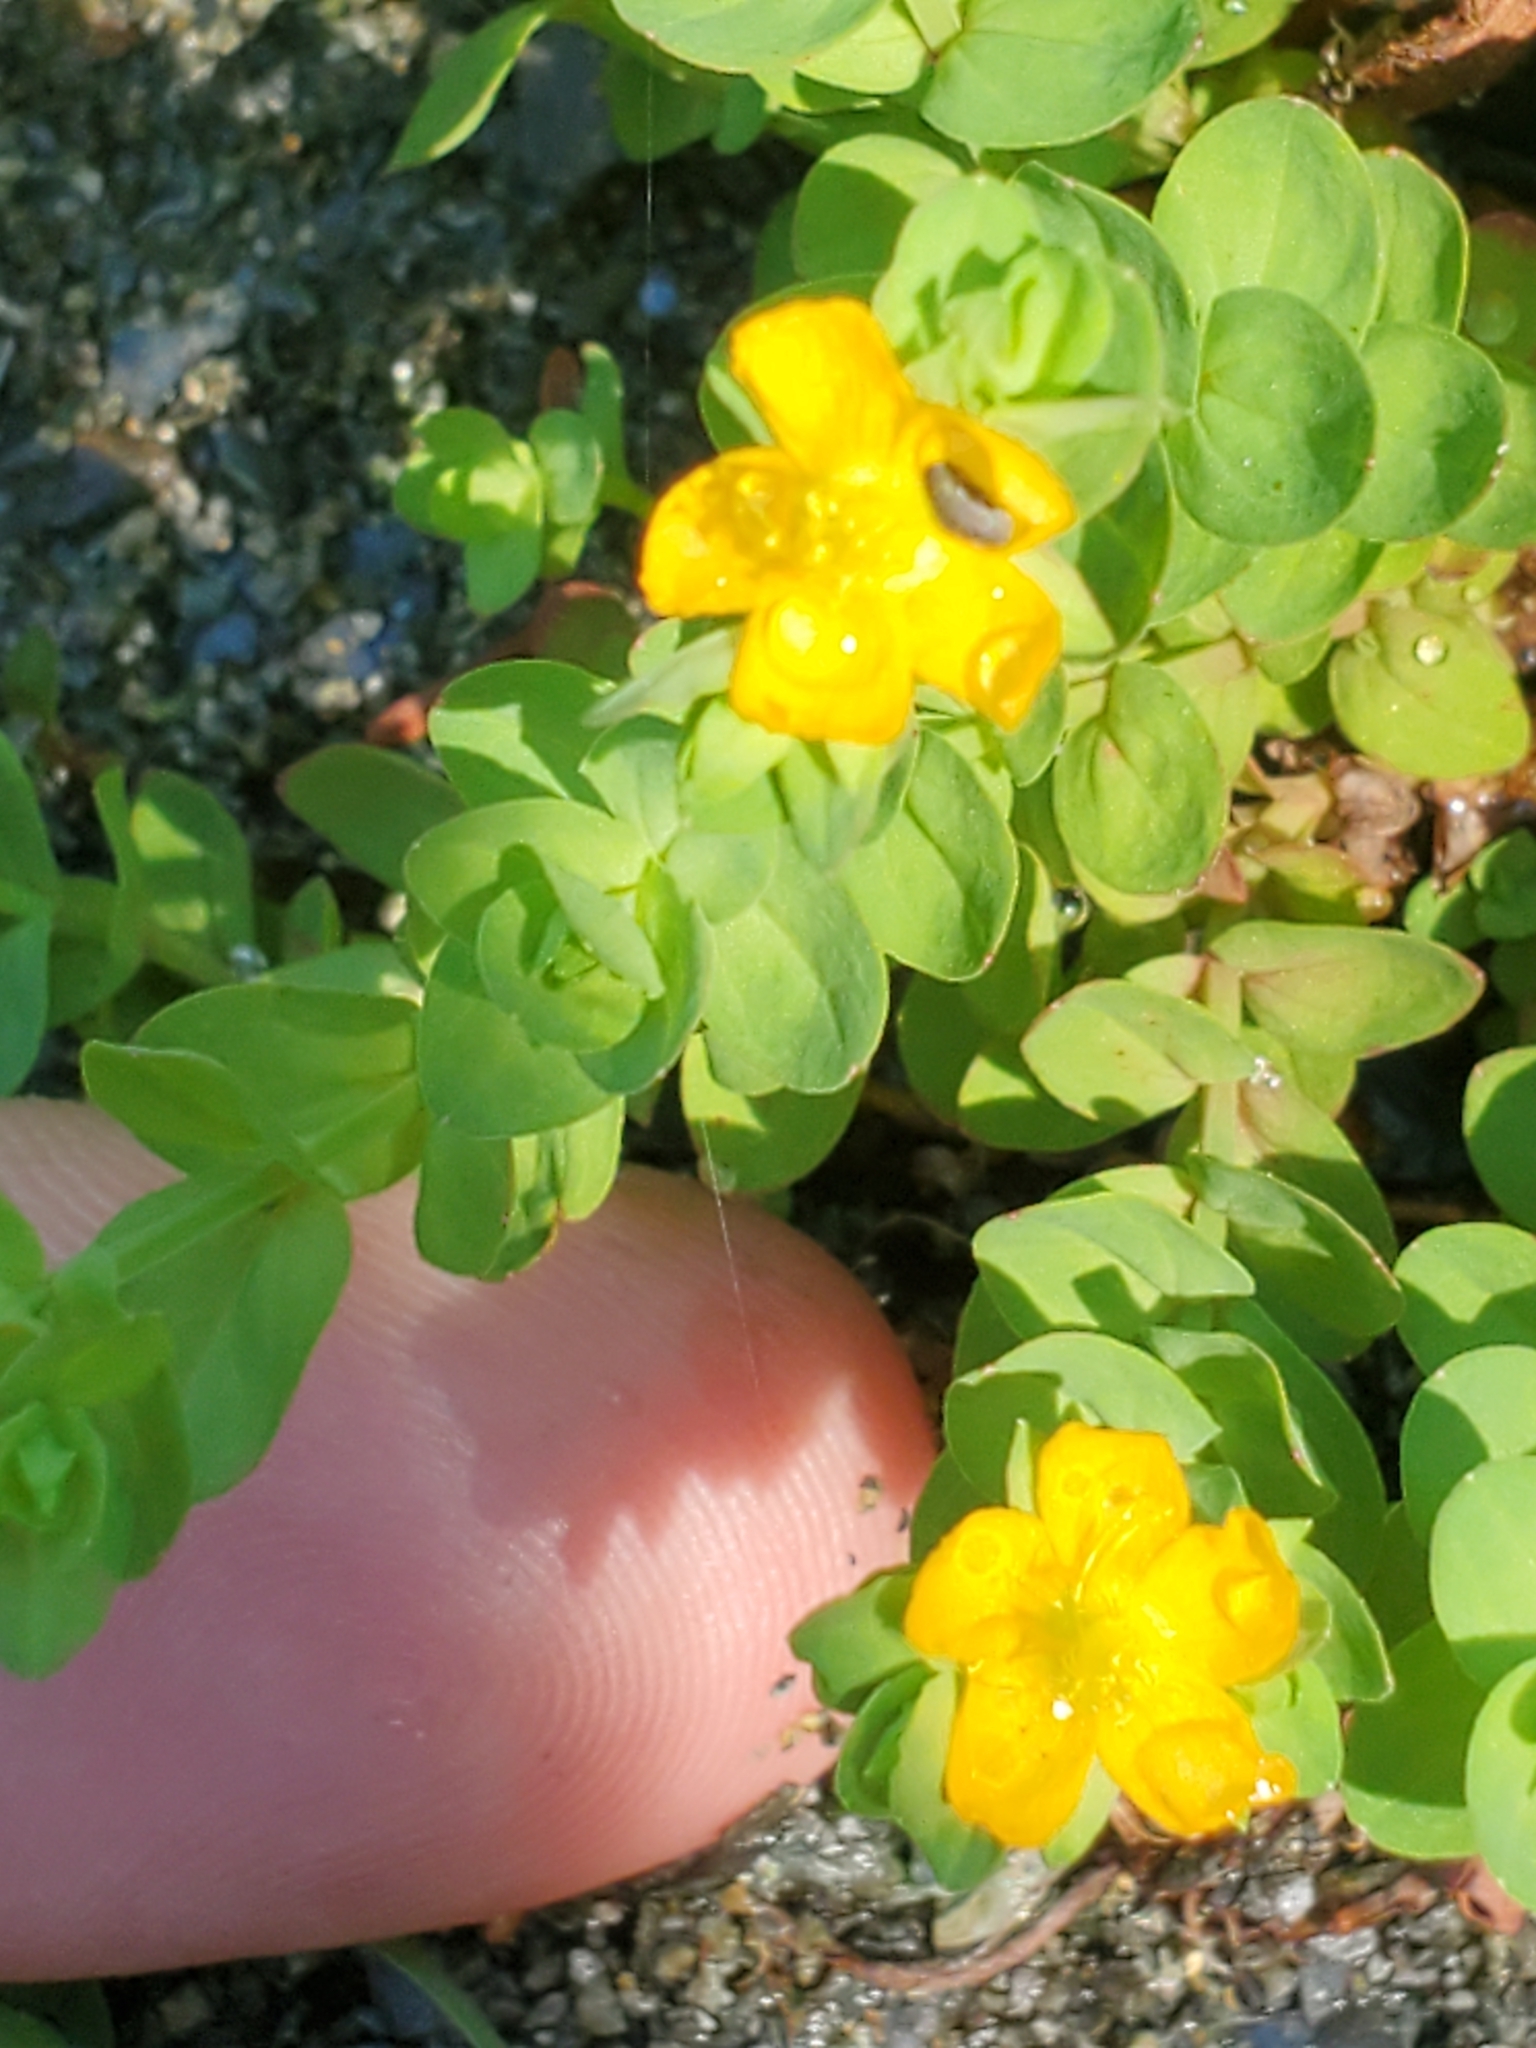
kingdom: Plantae
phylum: Tracheophyta
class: Magnoliopsida
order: Malpighiales
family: Hypericaceae
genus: Hypericum
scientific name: Hypericum anagalloides
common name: Bog st. john's-wort
